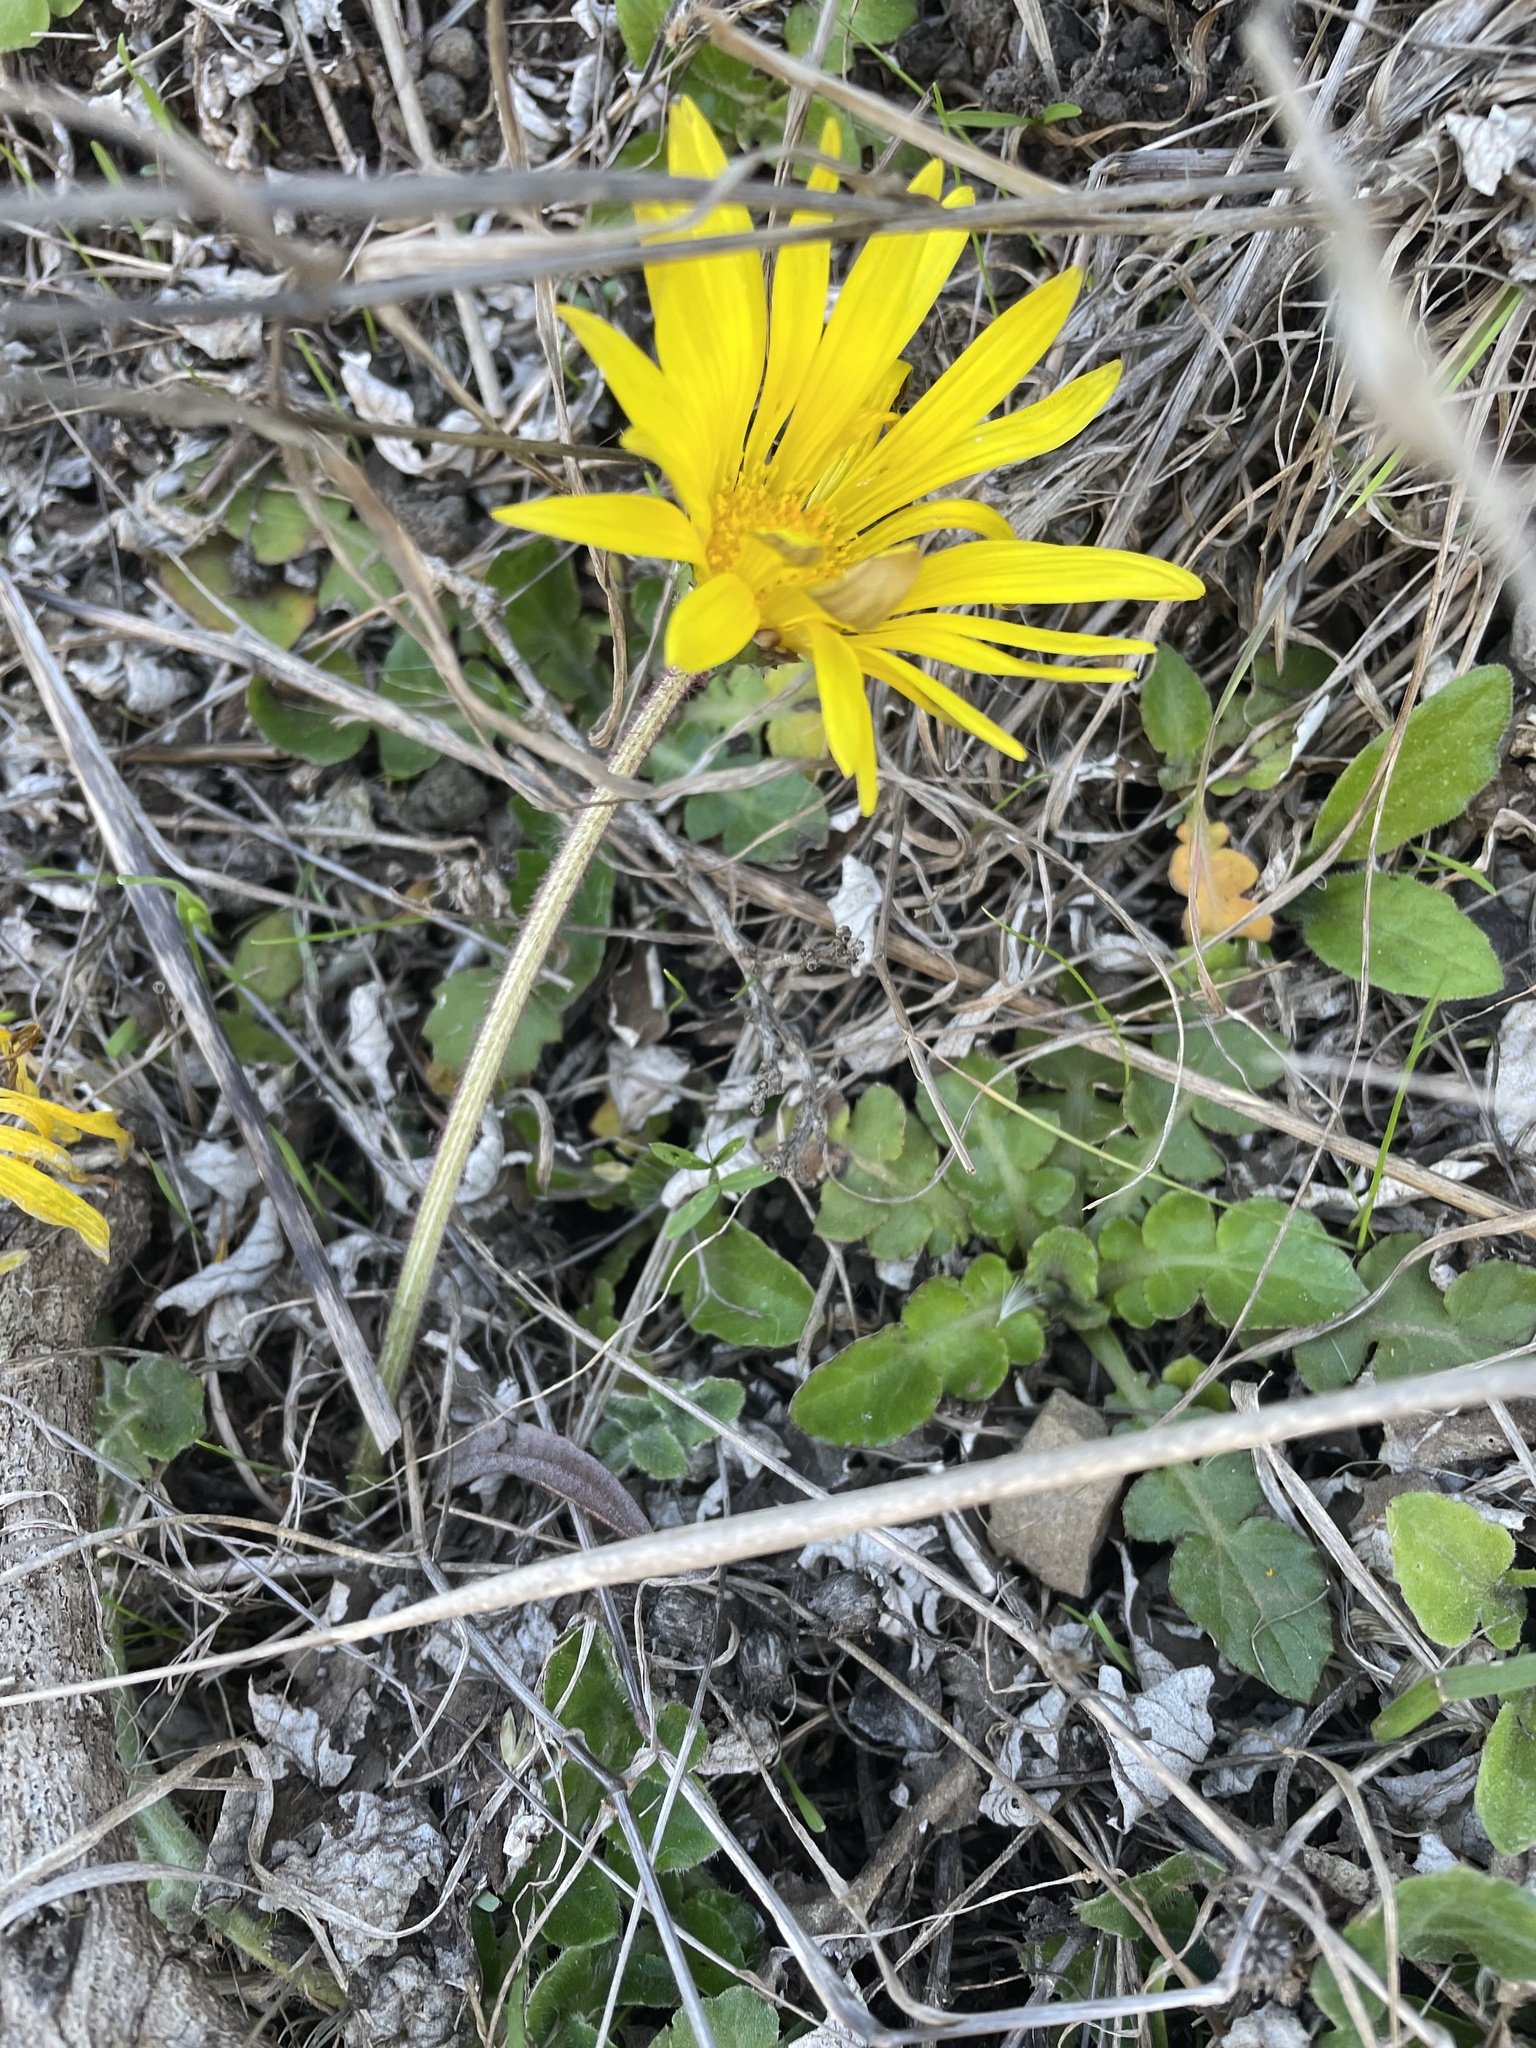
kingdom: Plantae
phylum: Tracheophyta
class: Magnoliopsida
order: Asterales
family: Asteraceae
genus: Arctotheca
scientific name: Arctotheca prostrata
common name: Capeweed
